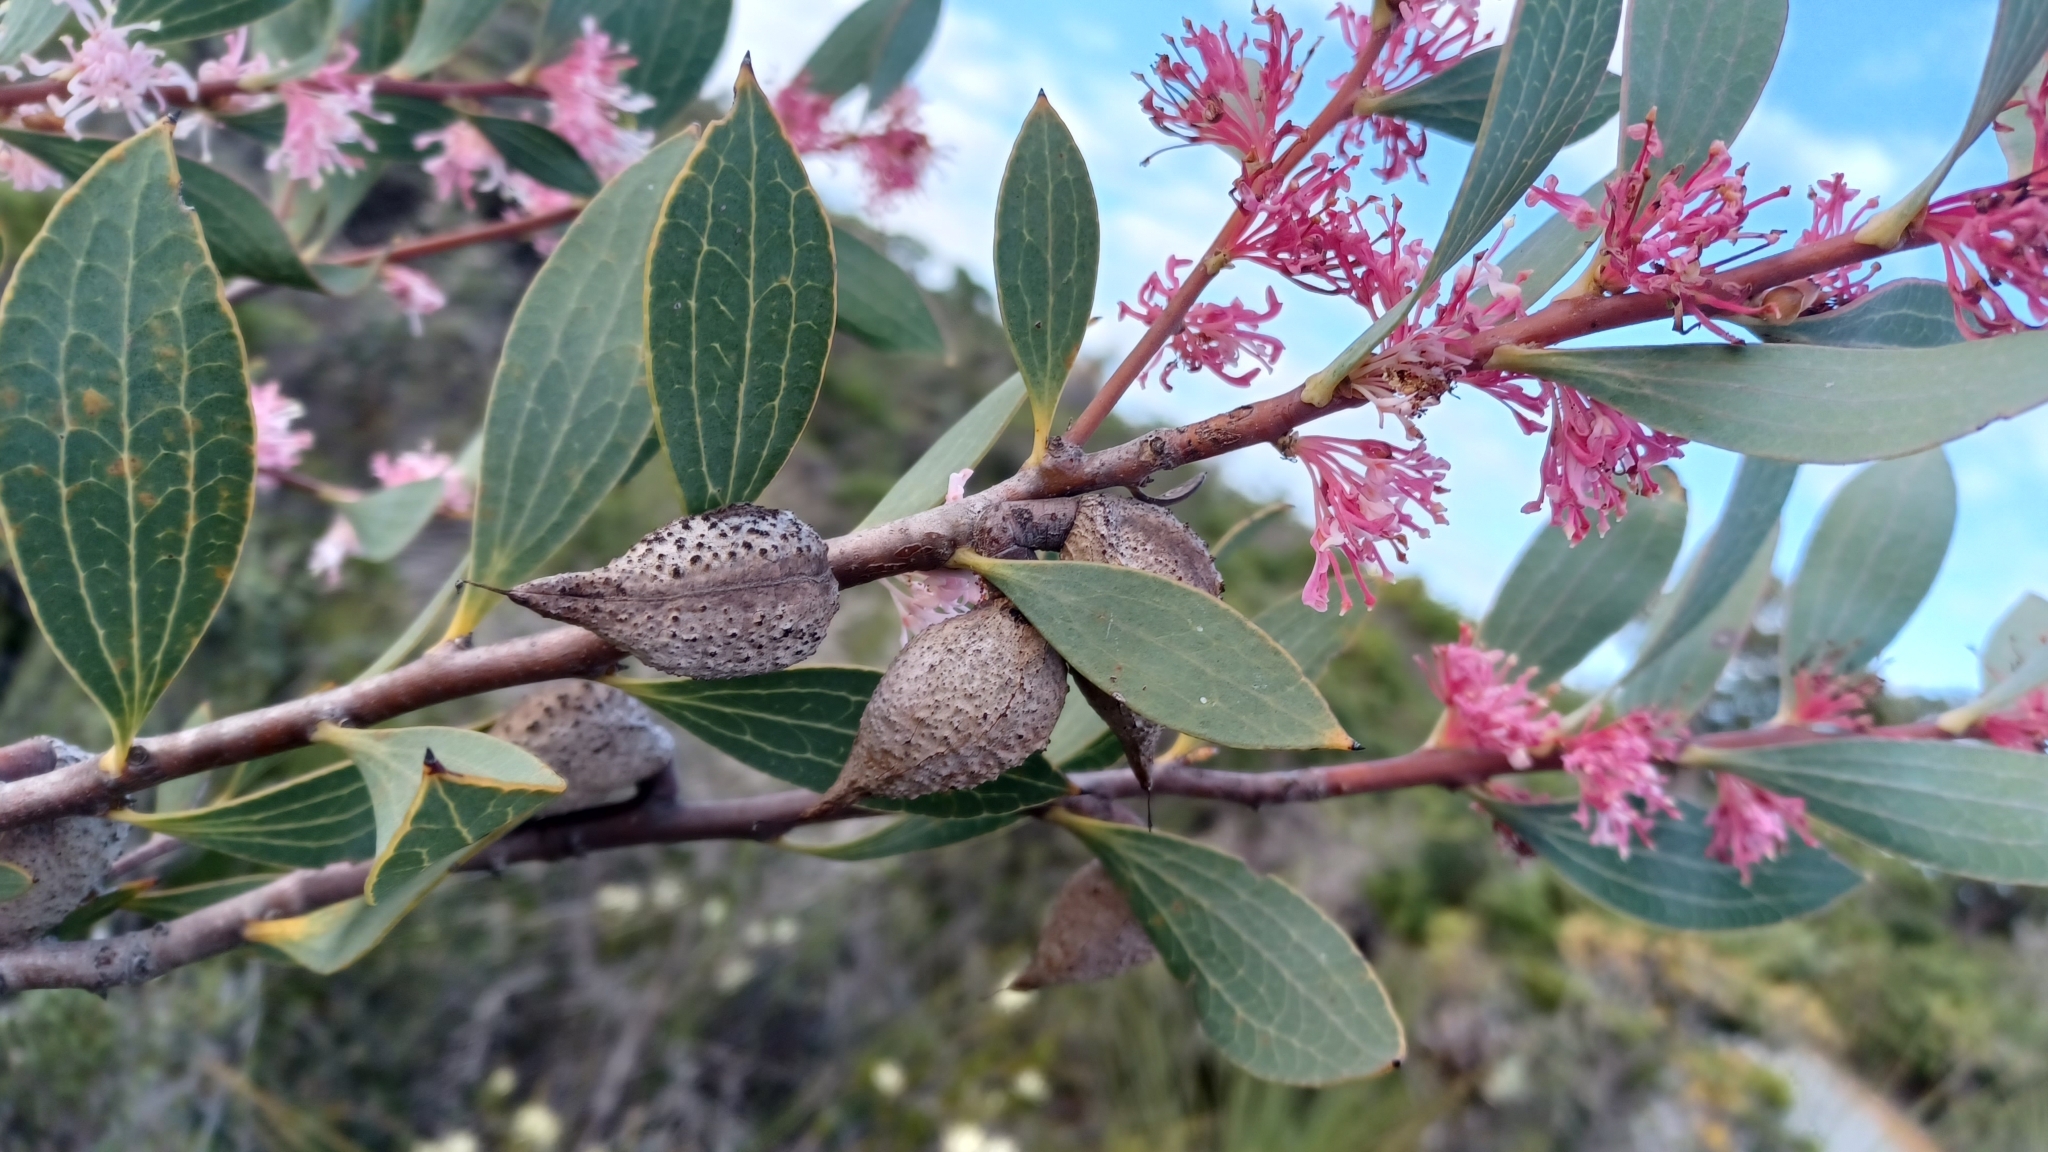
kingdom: Plantae
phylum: Tracheophyta
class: Magnoliopsida
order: Proteales
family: Proteaceae
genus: Hakea
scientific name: Hakea neurophylla
